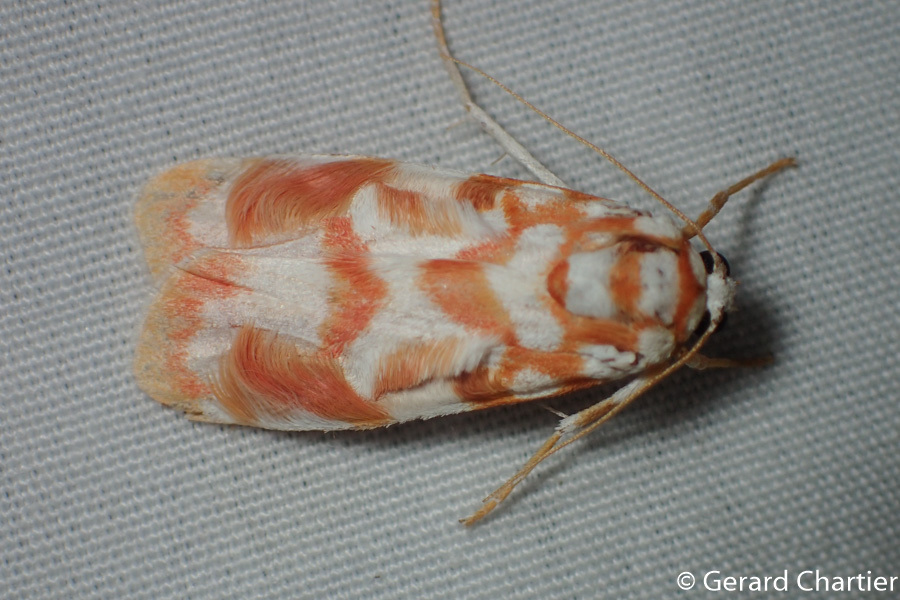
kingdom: Animalia
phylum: Arthropoda
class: Insecta
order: Lepidoptera
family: Erebidae
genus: Cyana
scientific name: Cyana costifimbria
